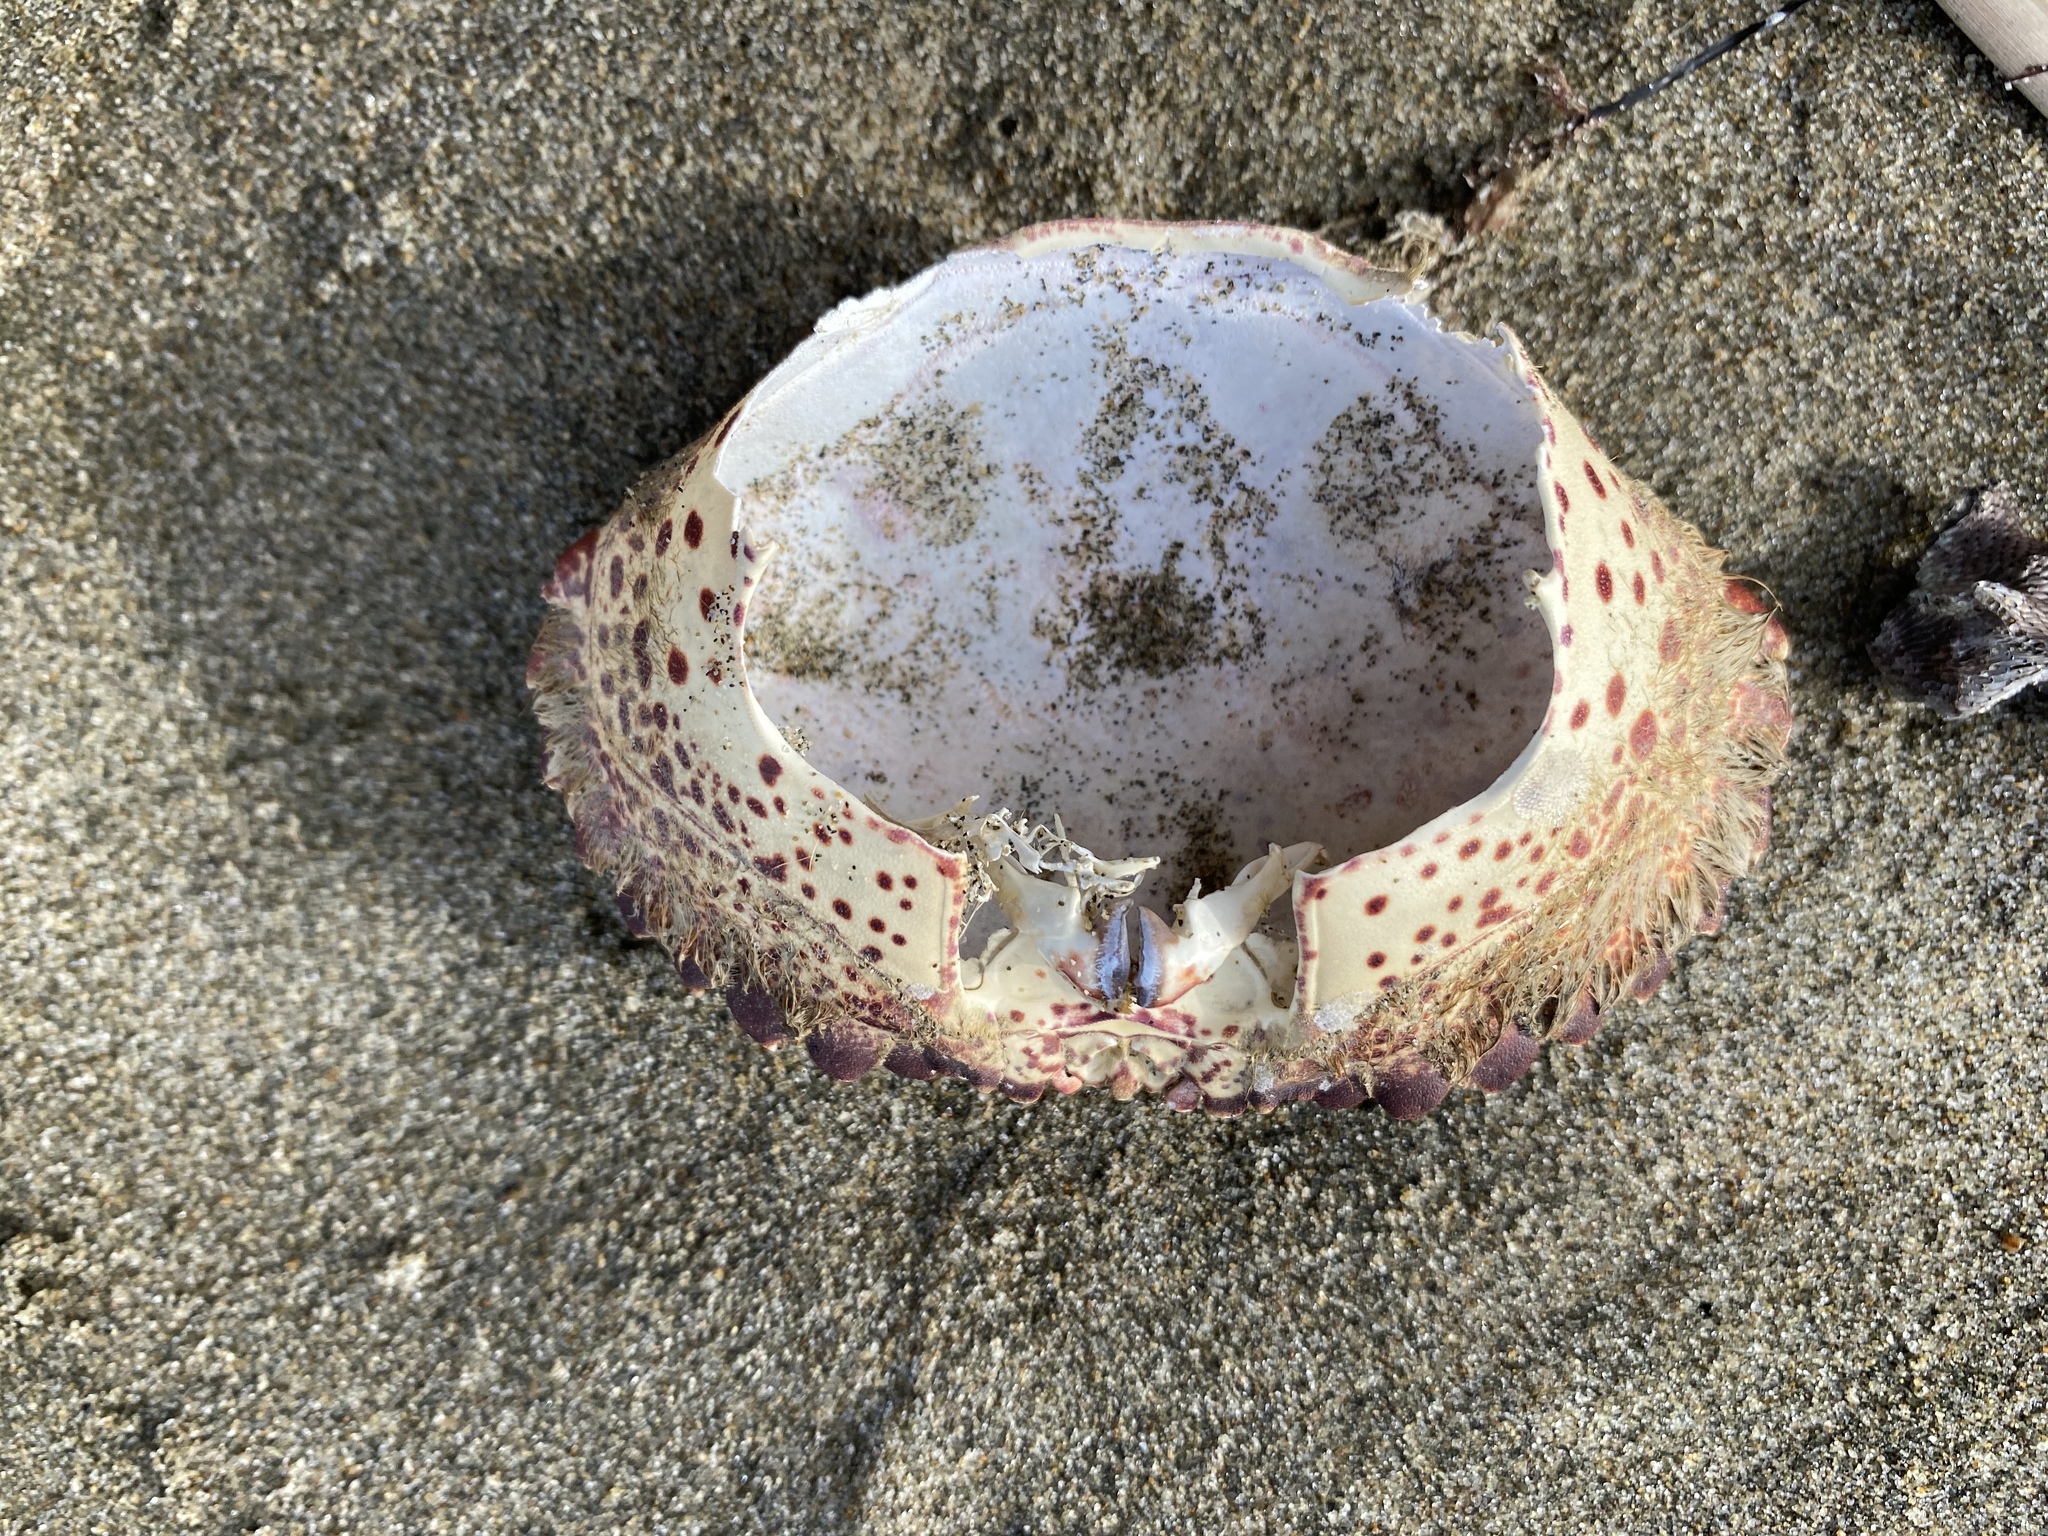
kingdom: Animalia
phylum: Arthropoda
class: Malacostraca
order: Decapoda
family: Cancridae
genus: Romaleon
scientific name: Romaleon antennarium
